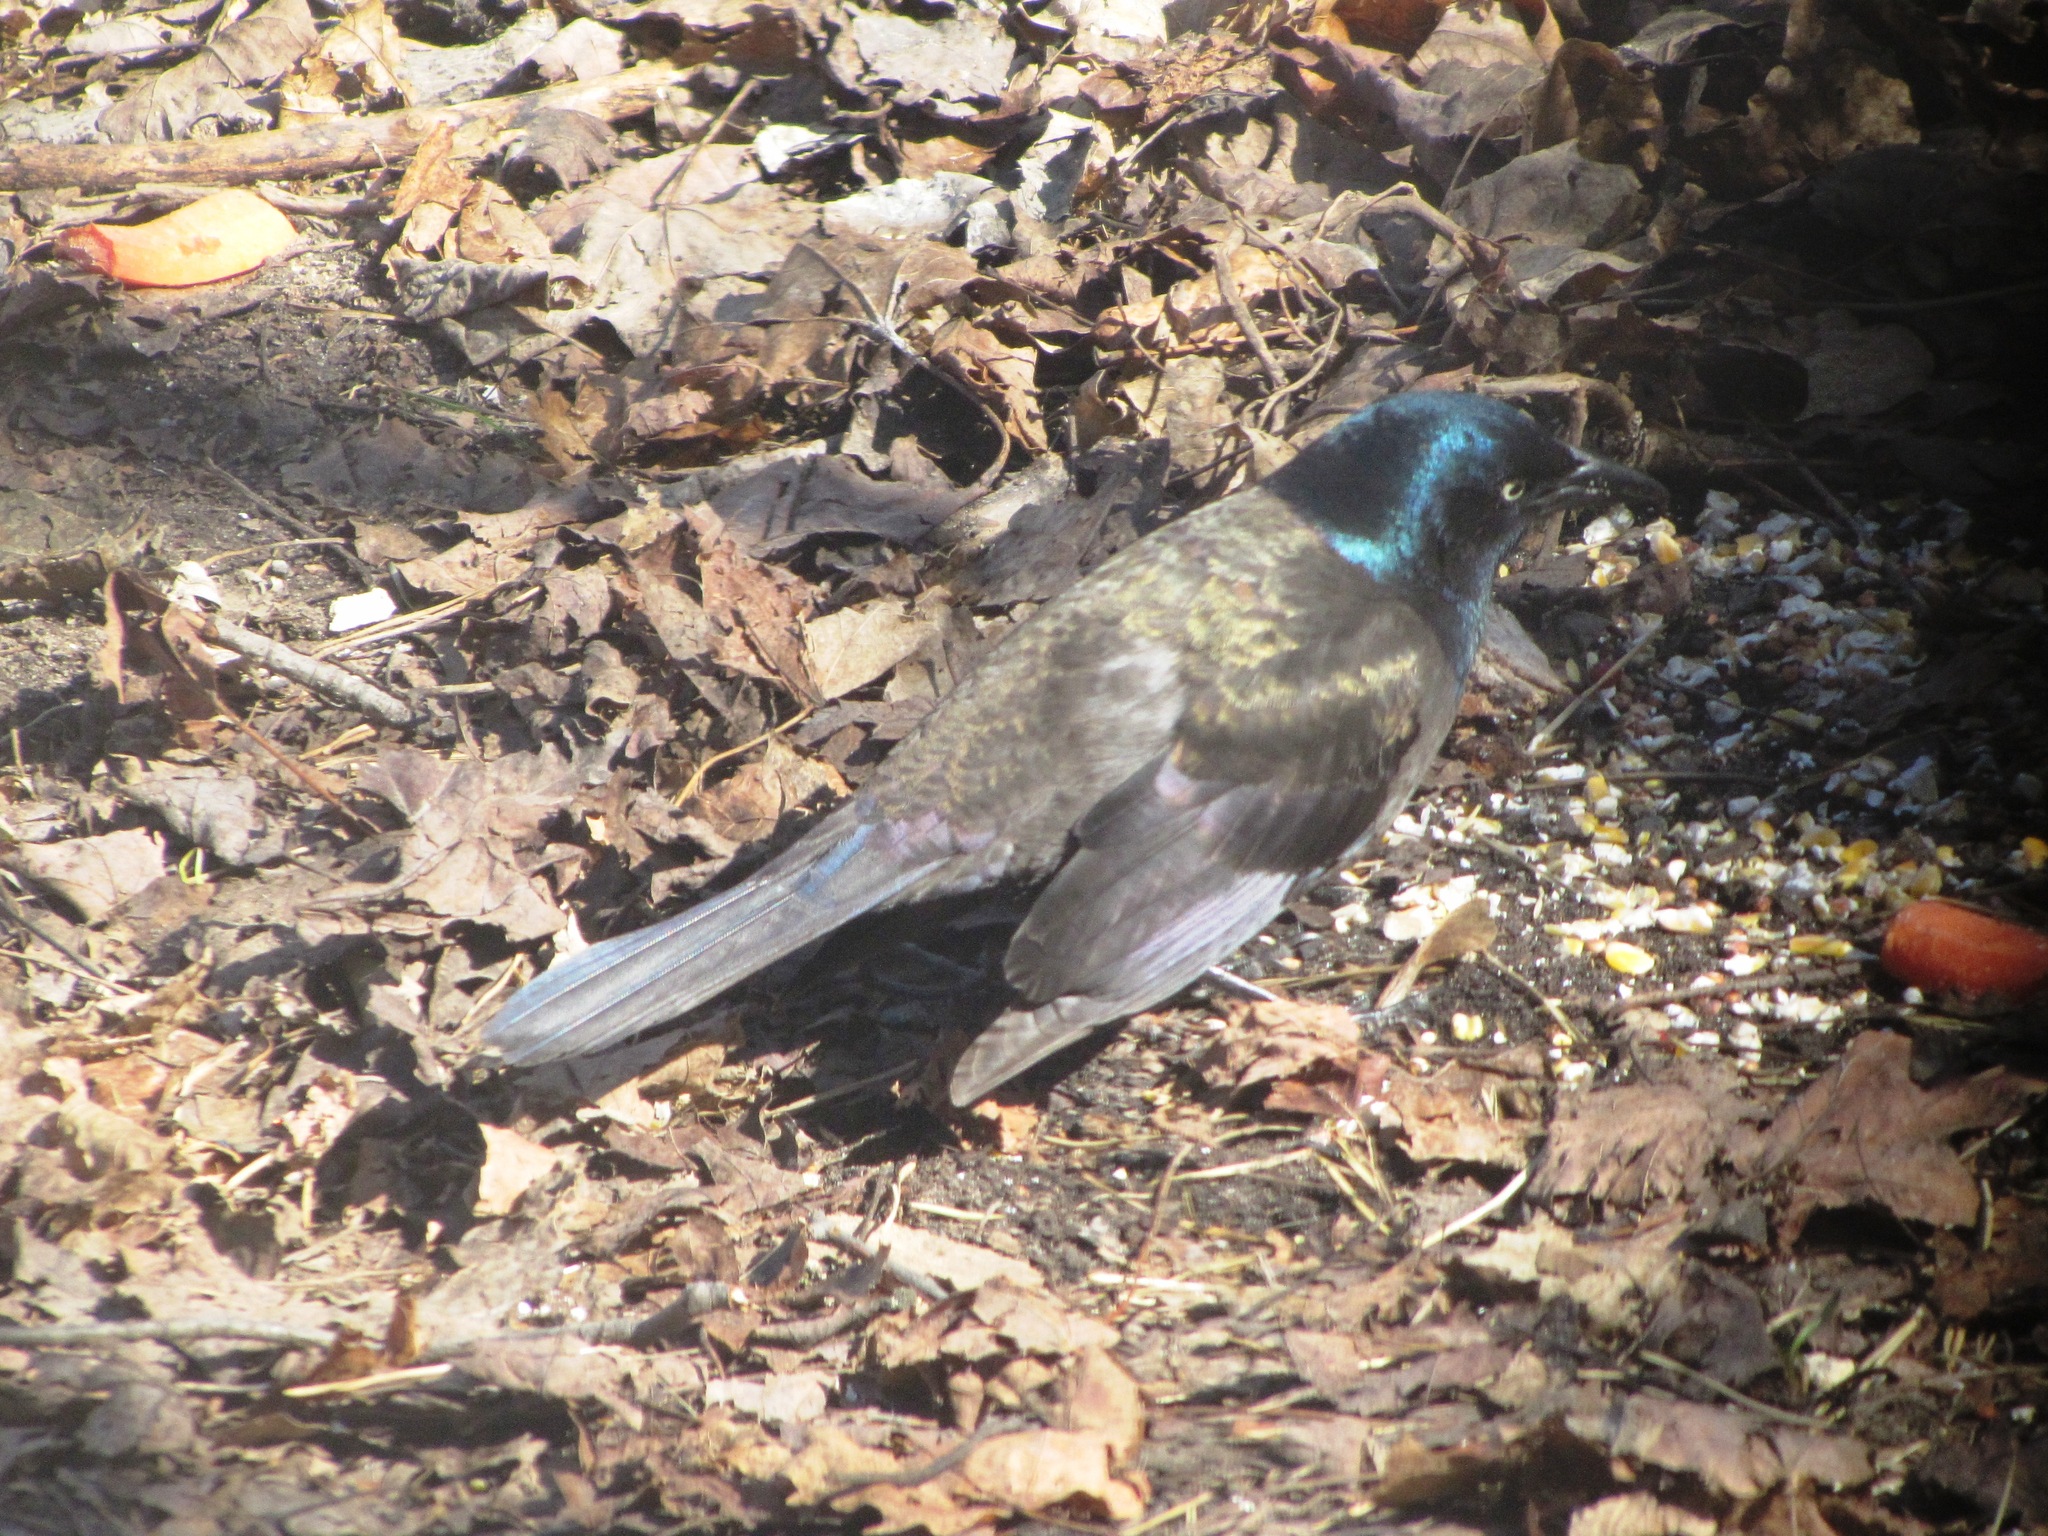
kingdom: Animalia
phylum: Chordata
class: Aves
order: Passeriformes
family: Icteridae
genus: Quiscalus
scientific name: Quiscalus quiscula
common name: Common grackle
